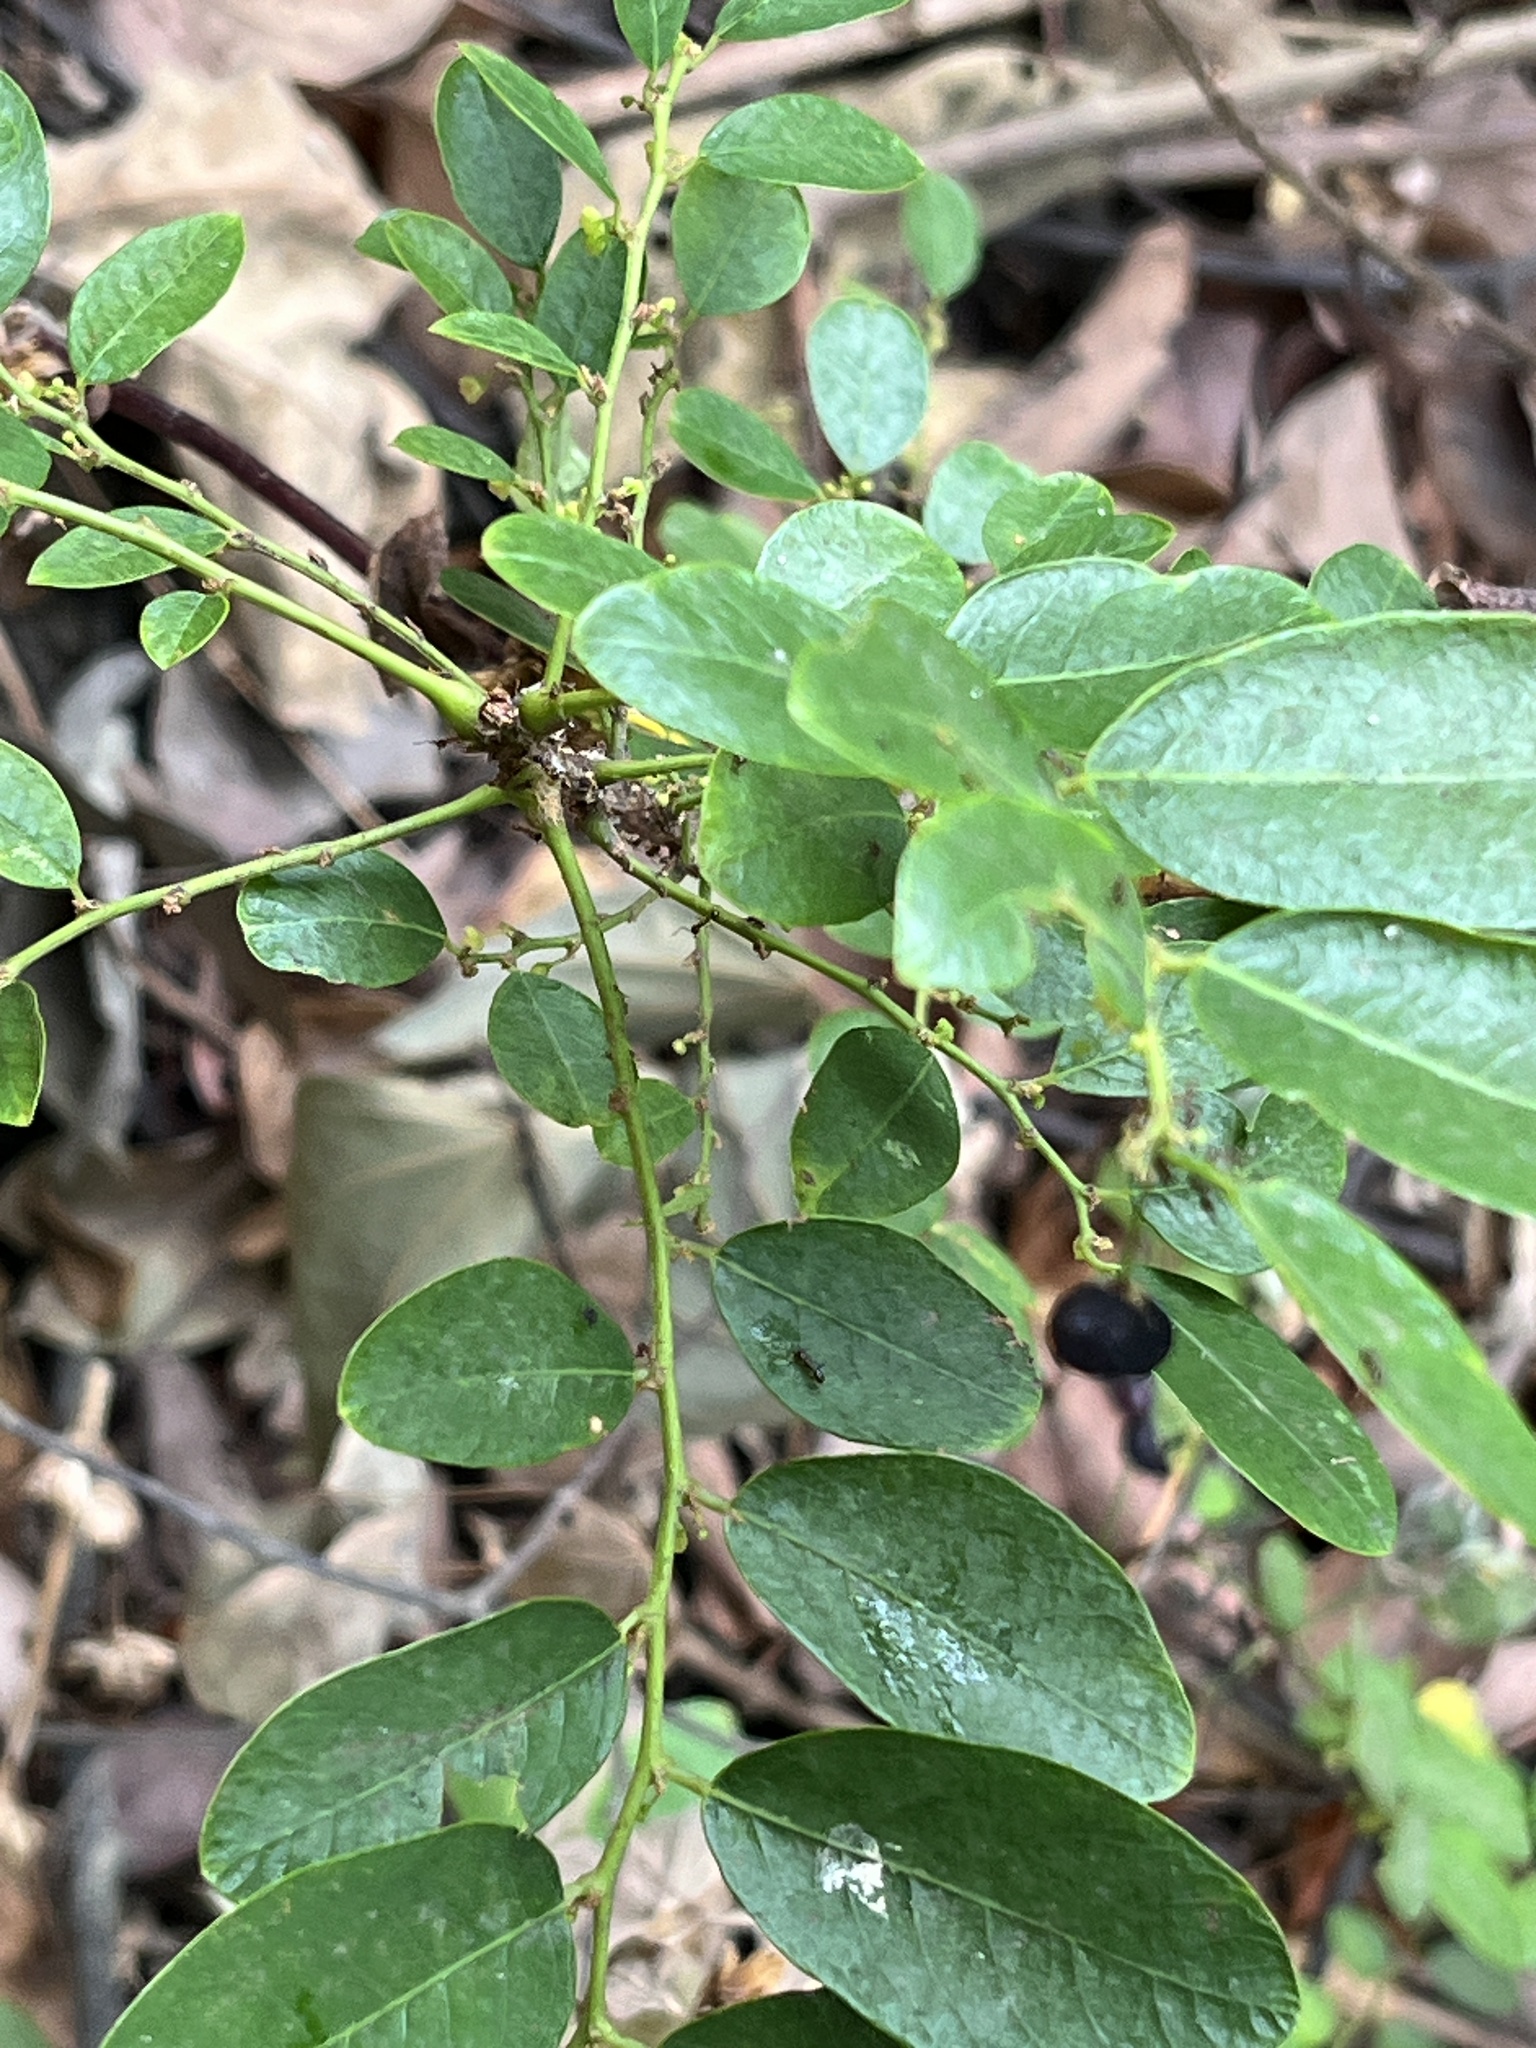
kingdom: Plantae
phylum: Tracheophyta
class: Magnoliopsida
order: Malpighiales
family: Phyllanthaceae
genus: Phyllanthus
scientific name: Phyllanthus reticulatus
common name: Potato bush
